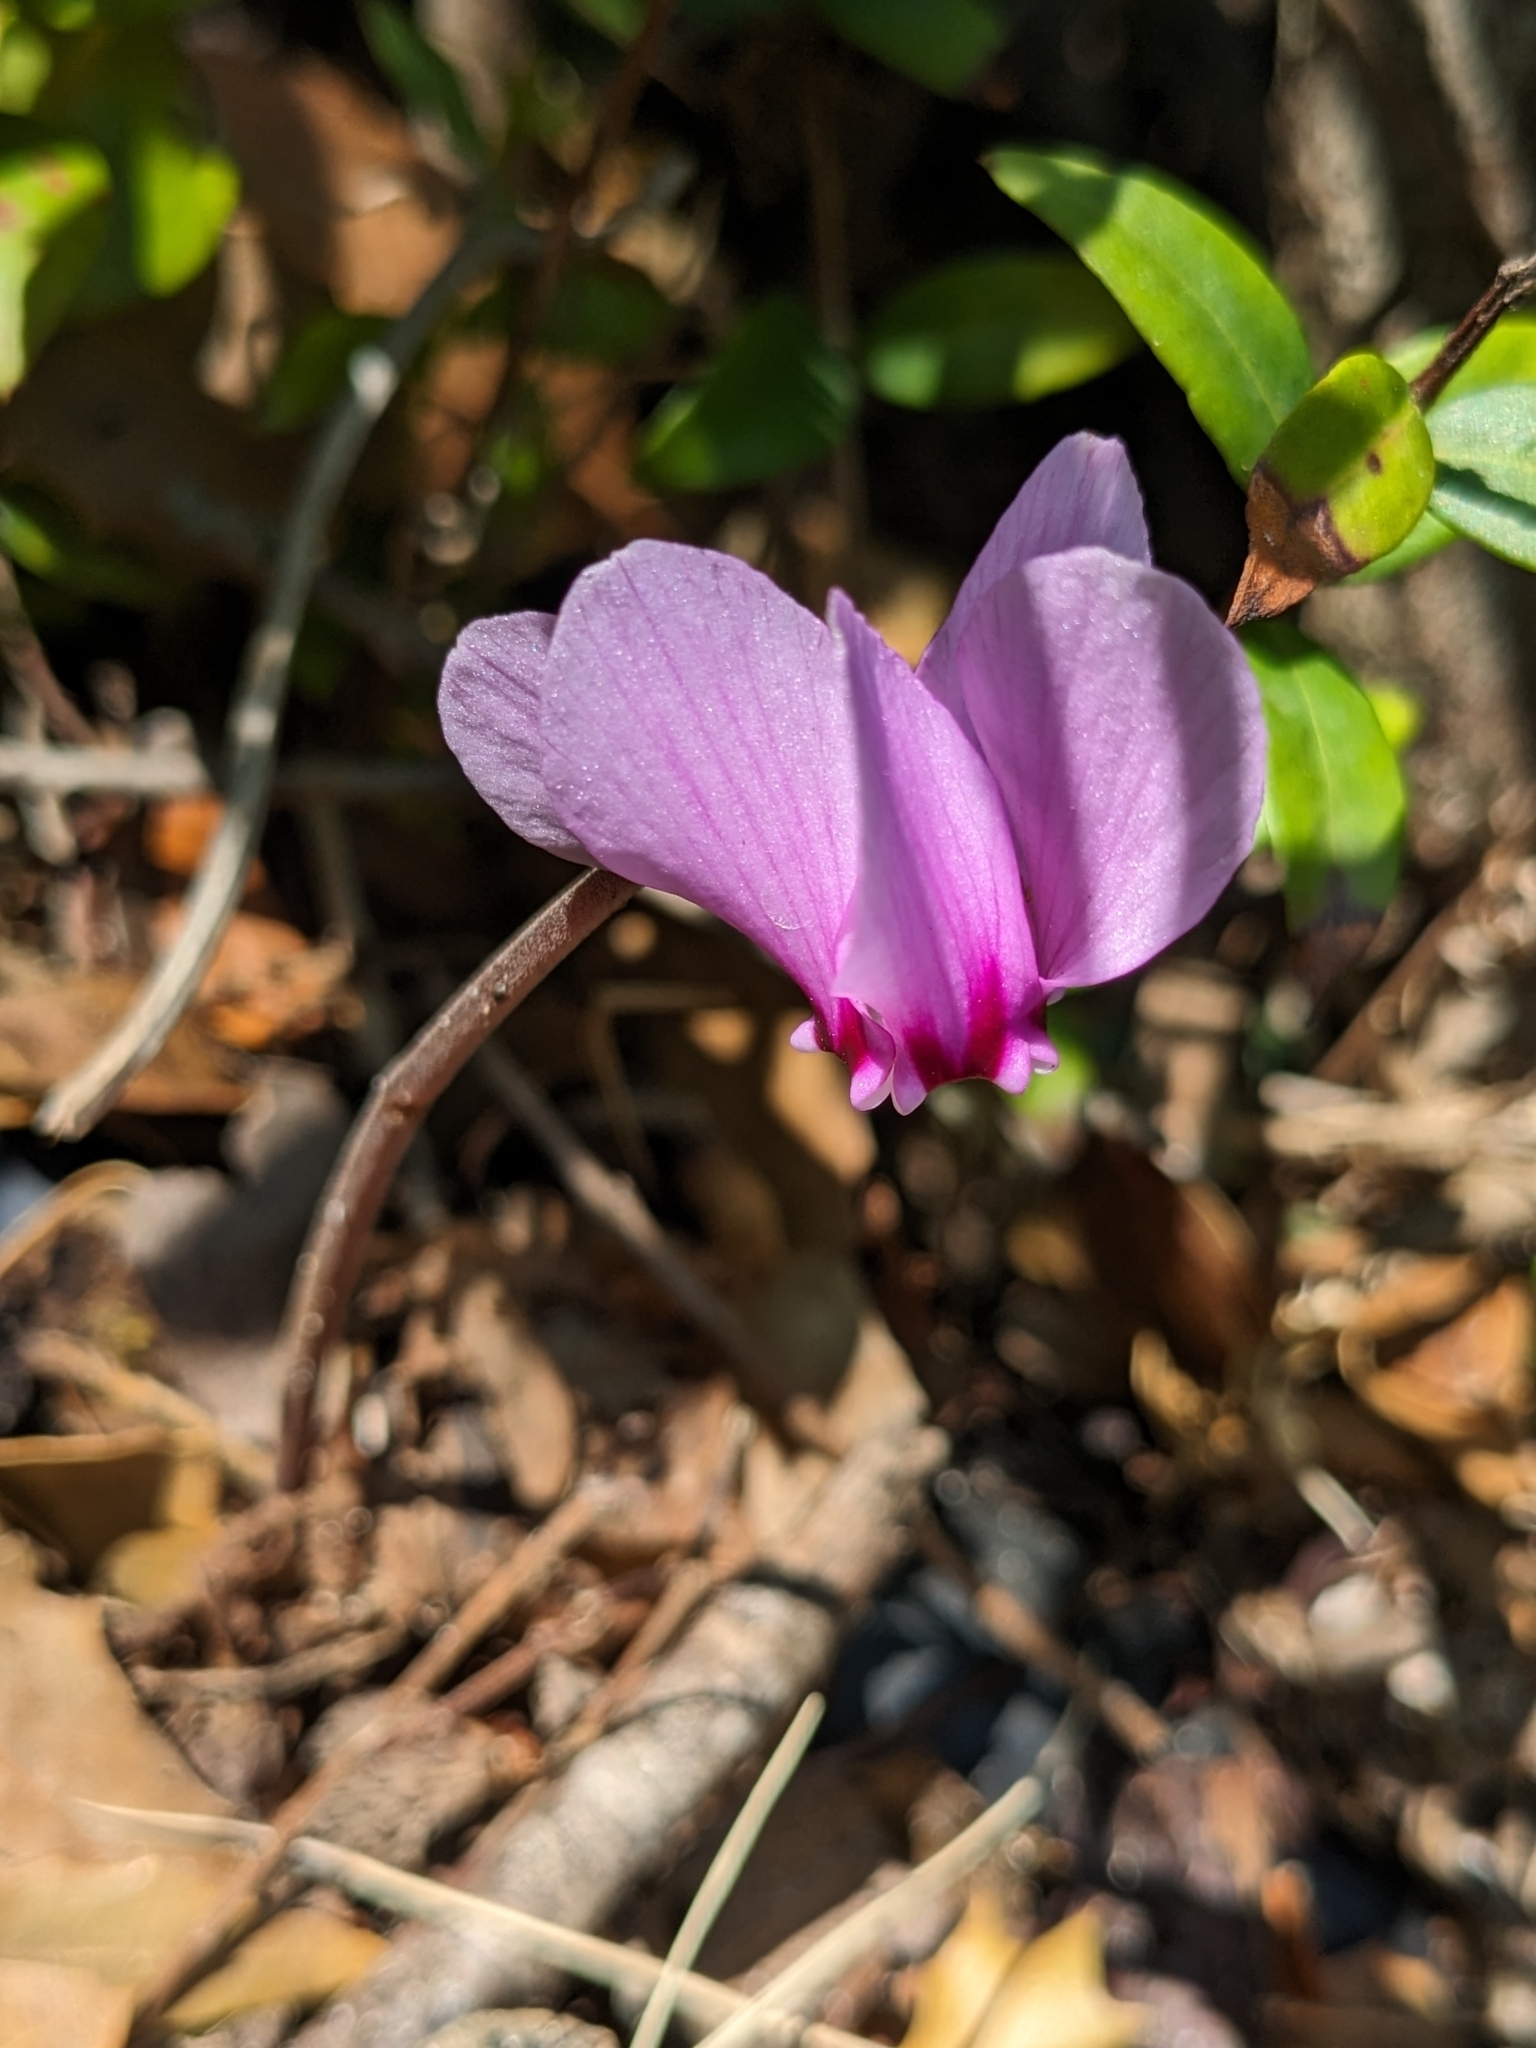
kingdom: Plantae
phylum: Tracheophyta
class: Magnoliopsida
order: Ericales
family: Primulaceae
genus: Cyclamen
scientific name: Cyclamen hederifolium
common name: Sowbread
